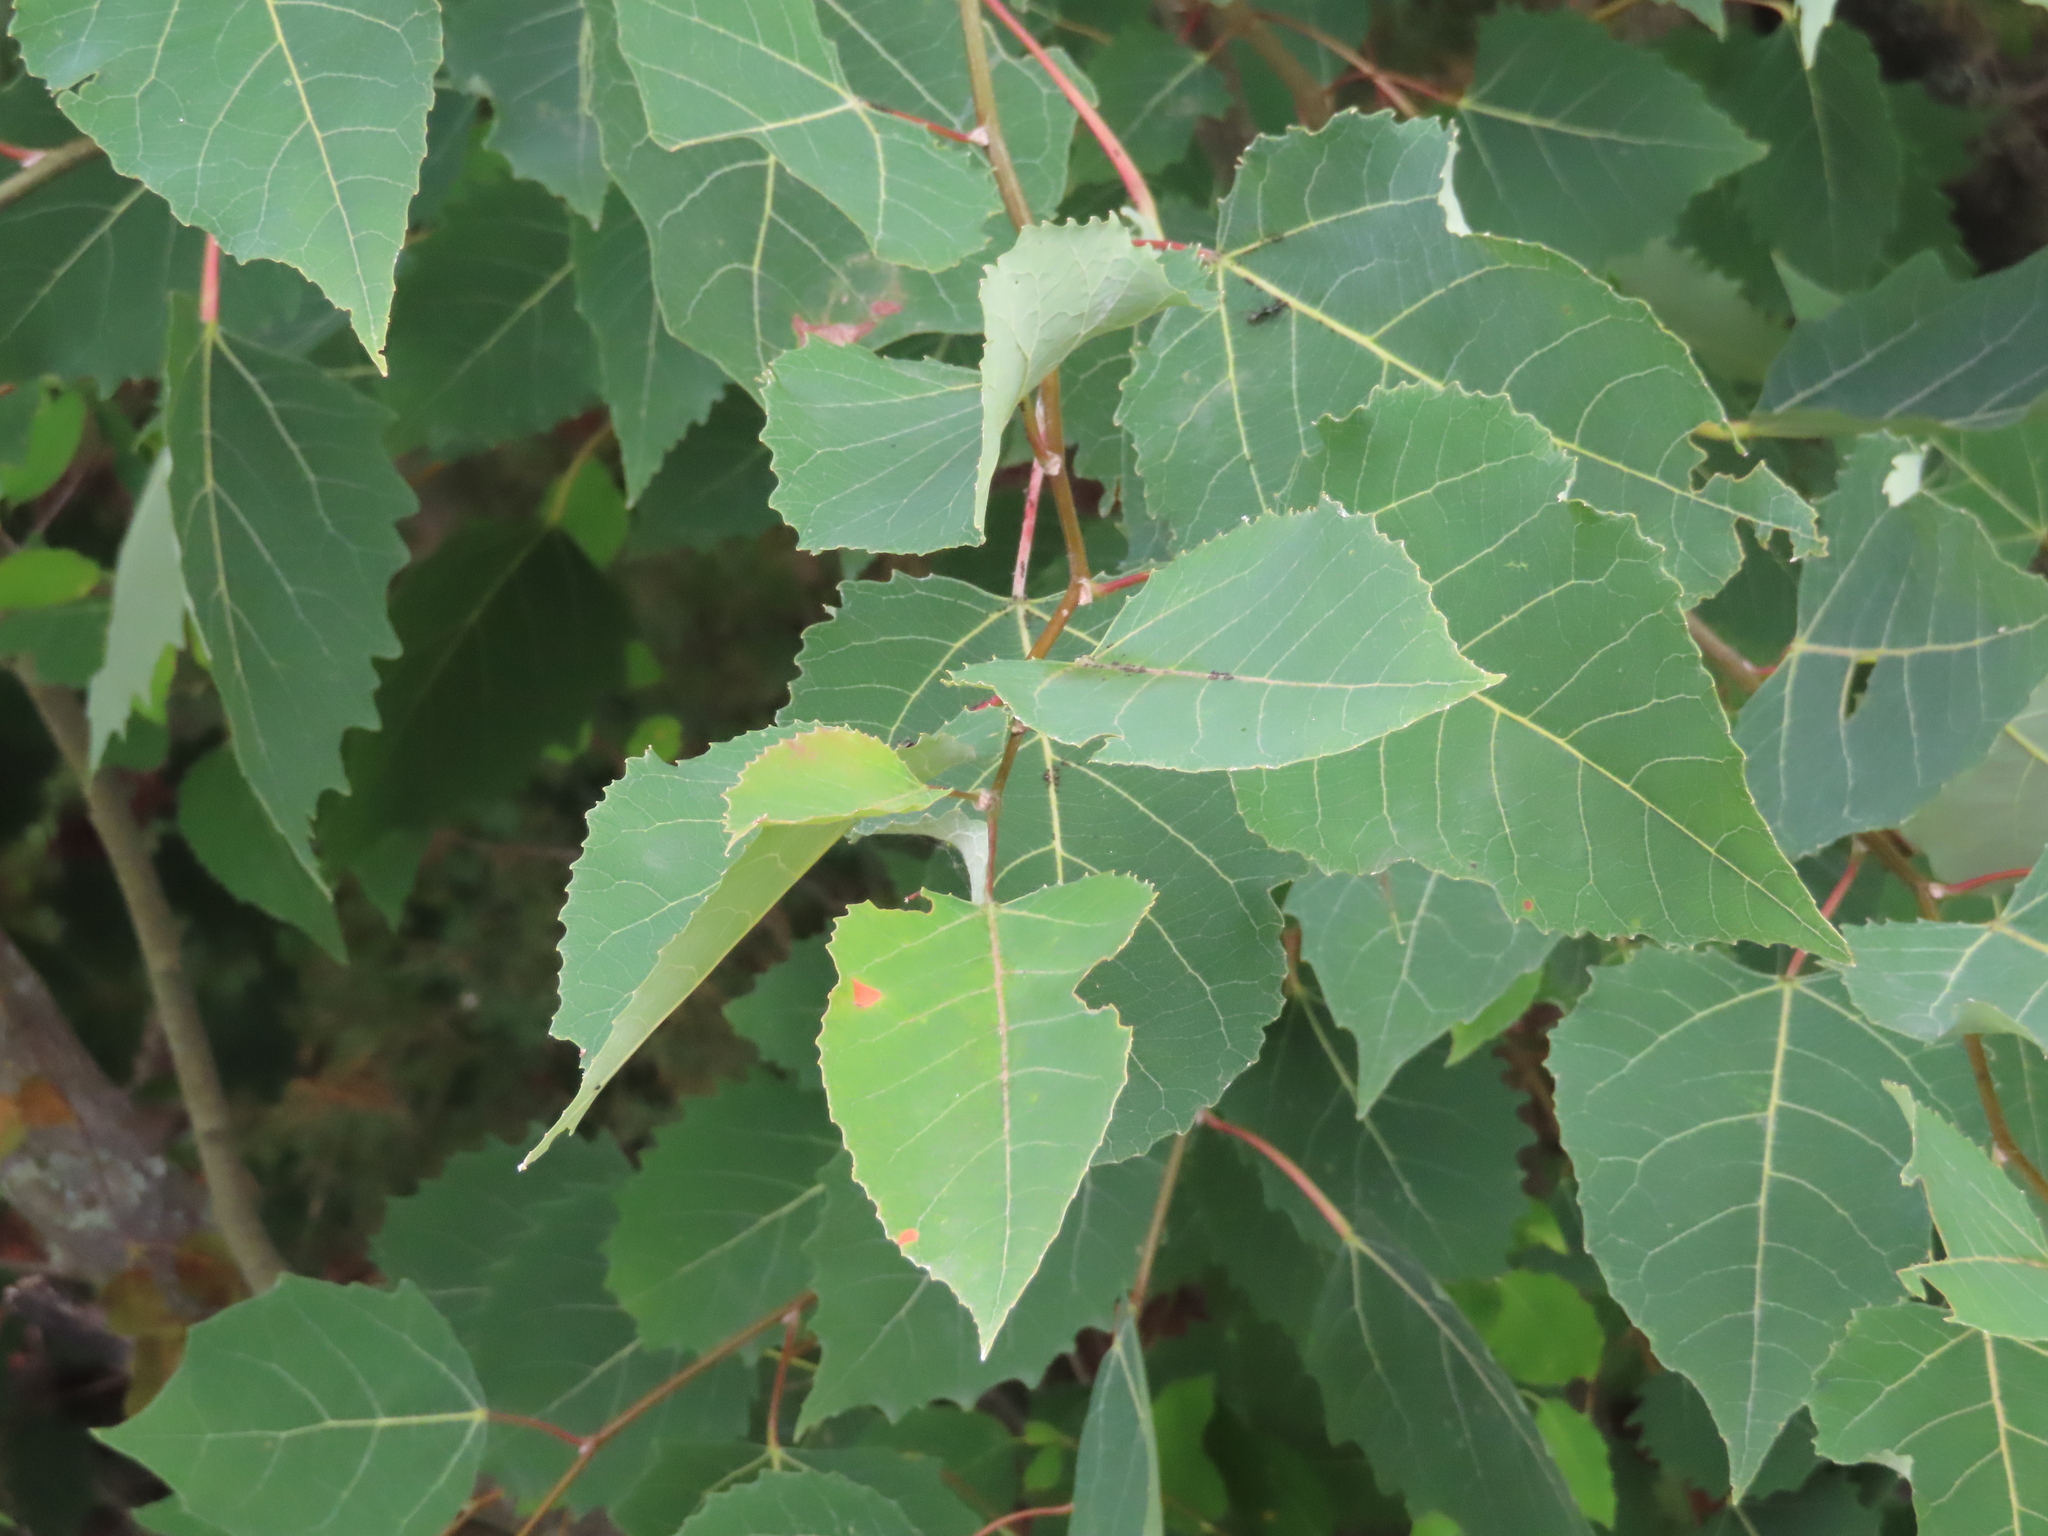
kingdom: Plantae
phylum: Tracheophyta
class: Magnoliopsida
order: Malpighiales
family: Salicaceae
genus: Populus
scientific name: Populus grandidentata
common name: Bigtooth aspen
